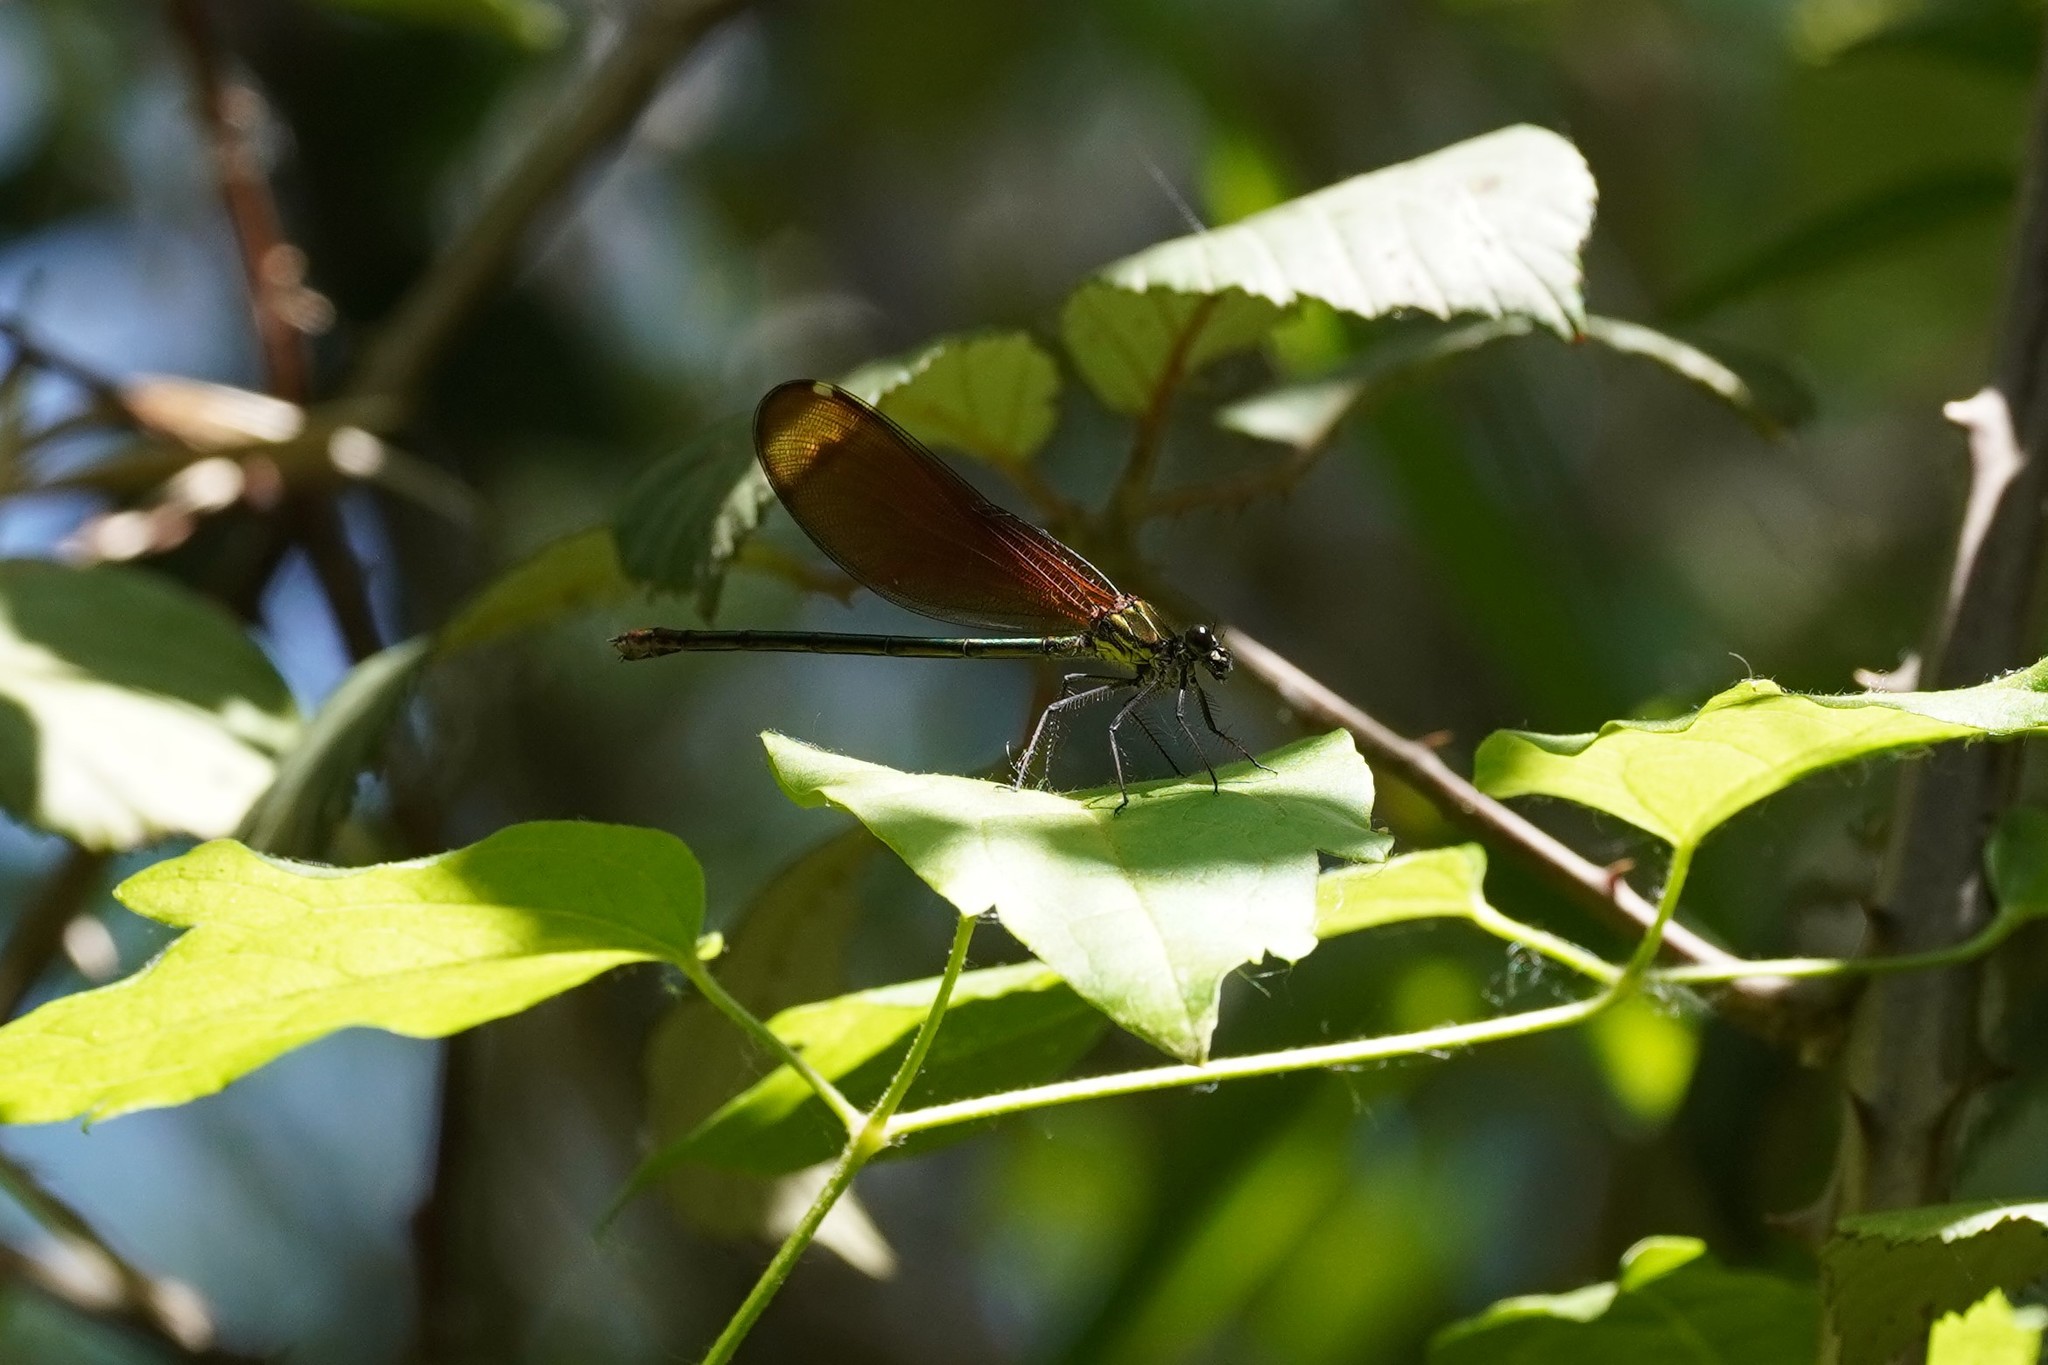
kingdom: Animalia
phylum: Arthropoda
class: Insecta
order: Odonata
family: Calopterygidae
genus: Calopteryx
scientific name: Calopteryx haemorrhoidalis
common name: Copper demoiselle
